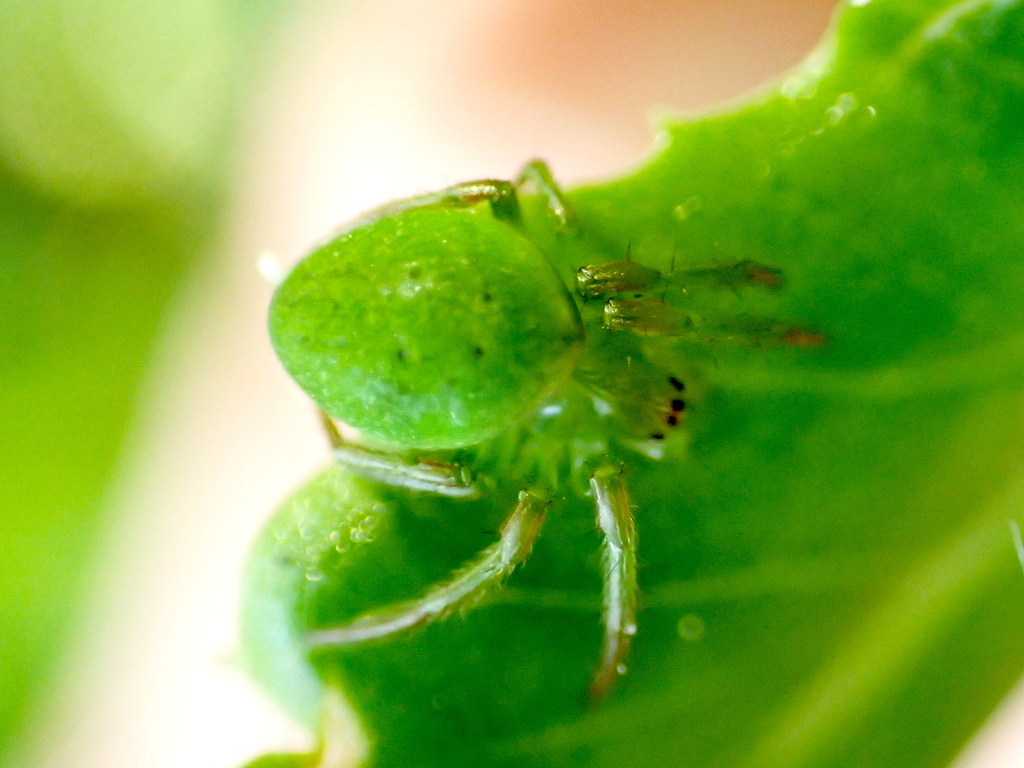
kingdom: Animalia
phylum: Arthropoda
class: Arachnida
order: Araneae
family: Araneidae
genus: Colaranea
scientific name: Colaranea viriditas
